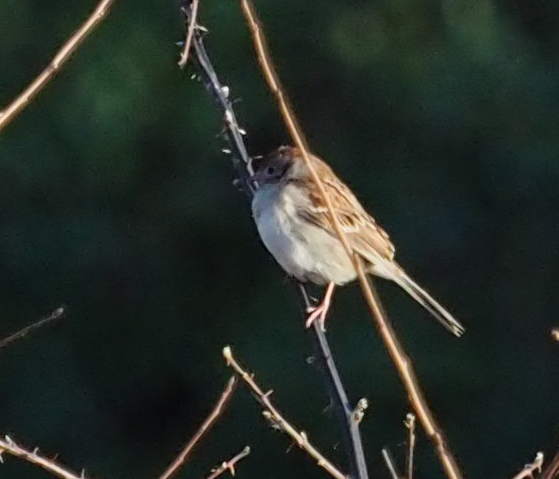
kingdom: Animalia
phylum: Chordata
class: Aves
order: Passeriformes
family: Passerellidae
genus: Spizella
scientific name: Spizella pusilla
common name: Field sparrow
